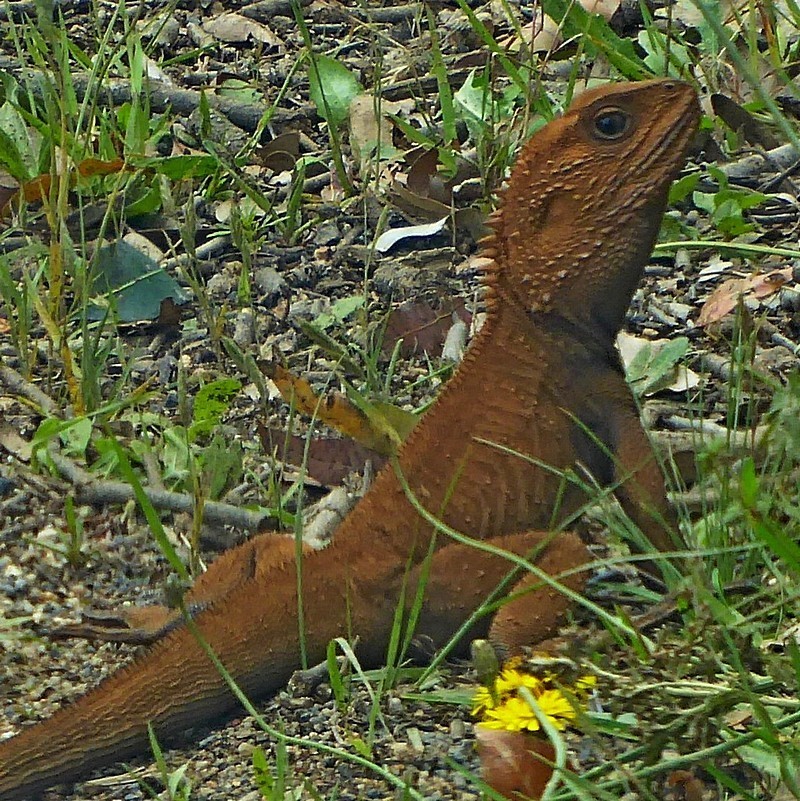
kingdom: Animalia
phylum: Chordata
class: Squamata
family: Agamidae
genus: Intellagama
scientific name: Intellagama lesueurii
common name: Eastern water dragon
